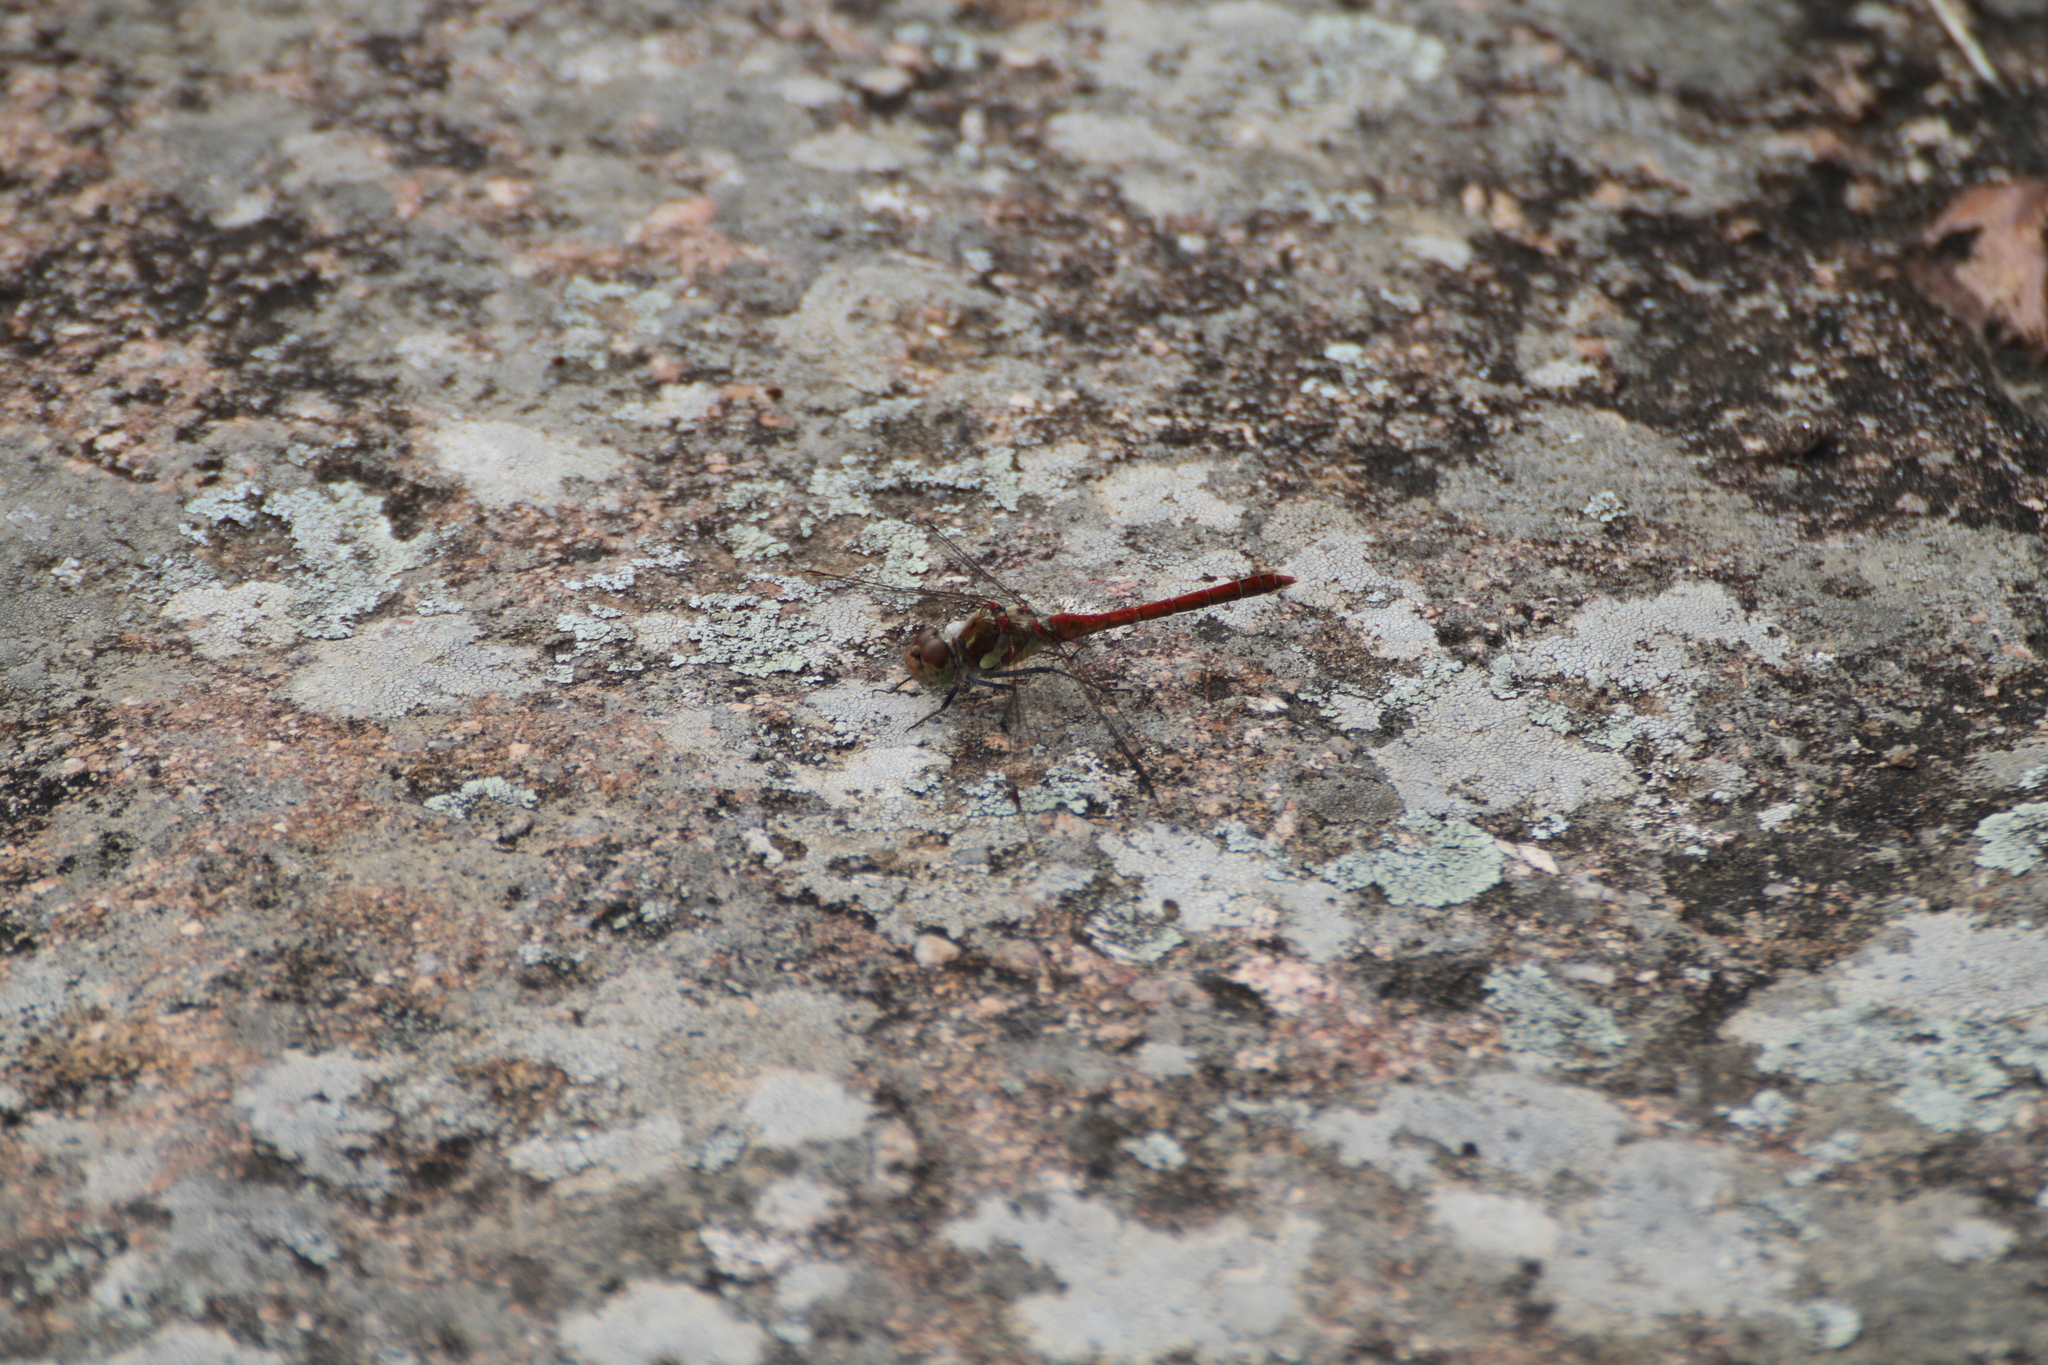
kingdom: Animalia
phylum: Arthropoda
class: Insecta
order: Odonata
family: Libellulidae
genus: Sympetrum
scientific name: Sympetrum striolatum
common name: Common darter
